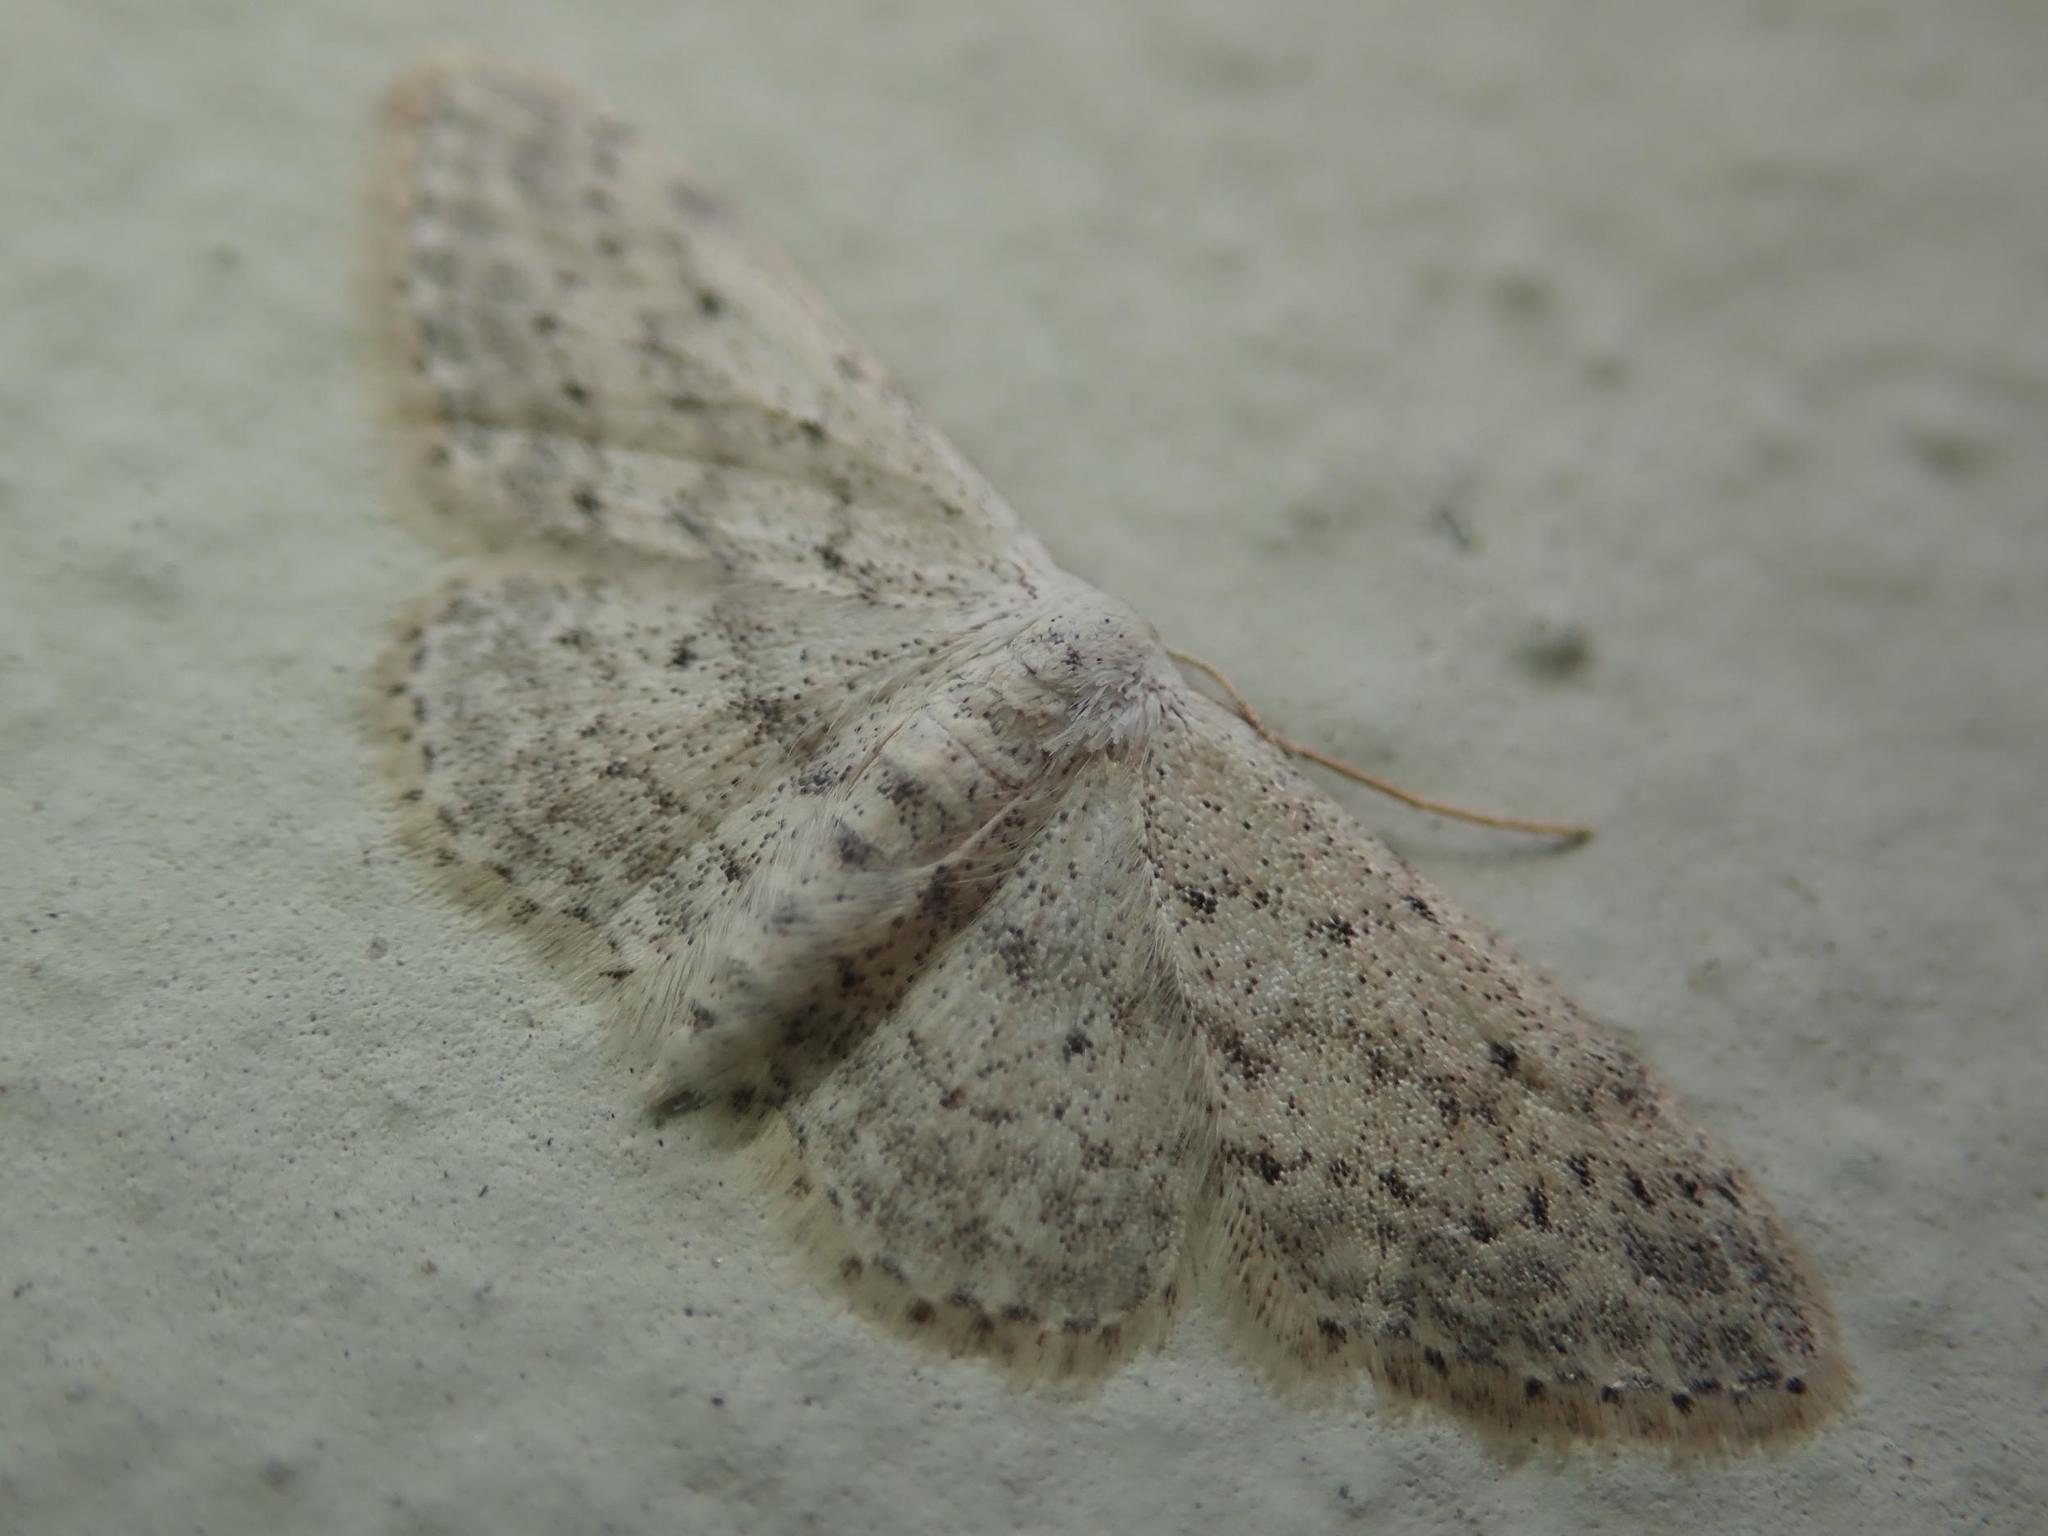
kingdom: Animalia
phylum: Arthropoda
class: Insecta
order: Lepidoptera
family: Geometridae
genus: Idaea
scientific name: Idaea seriata
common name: Small dusty wave
